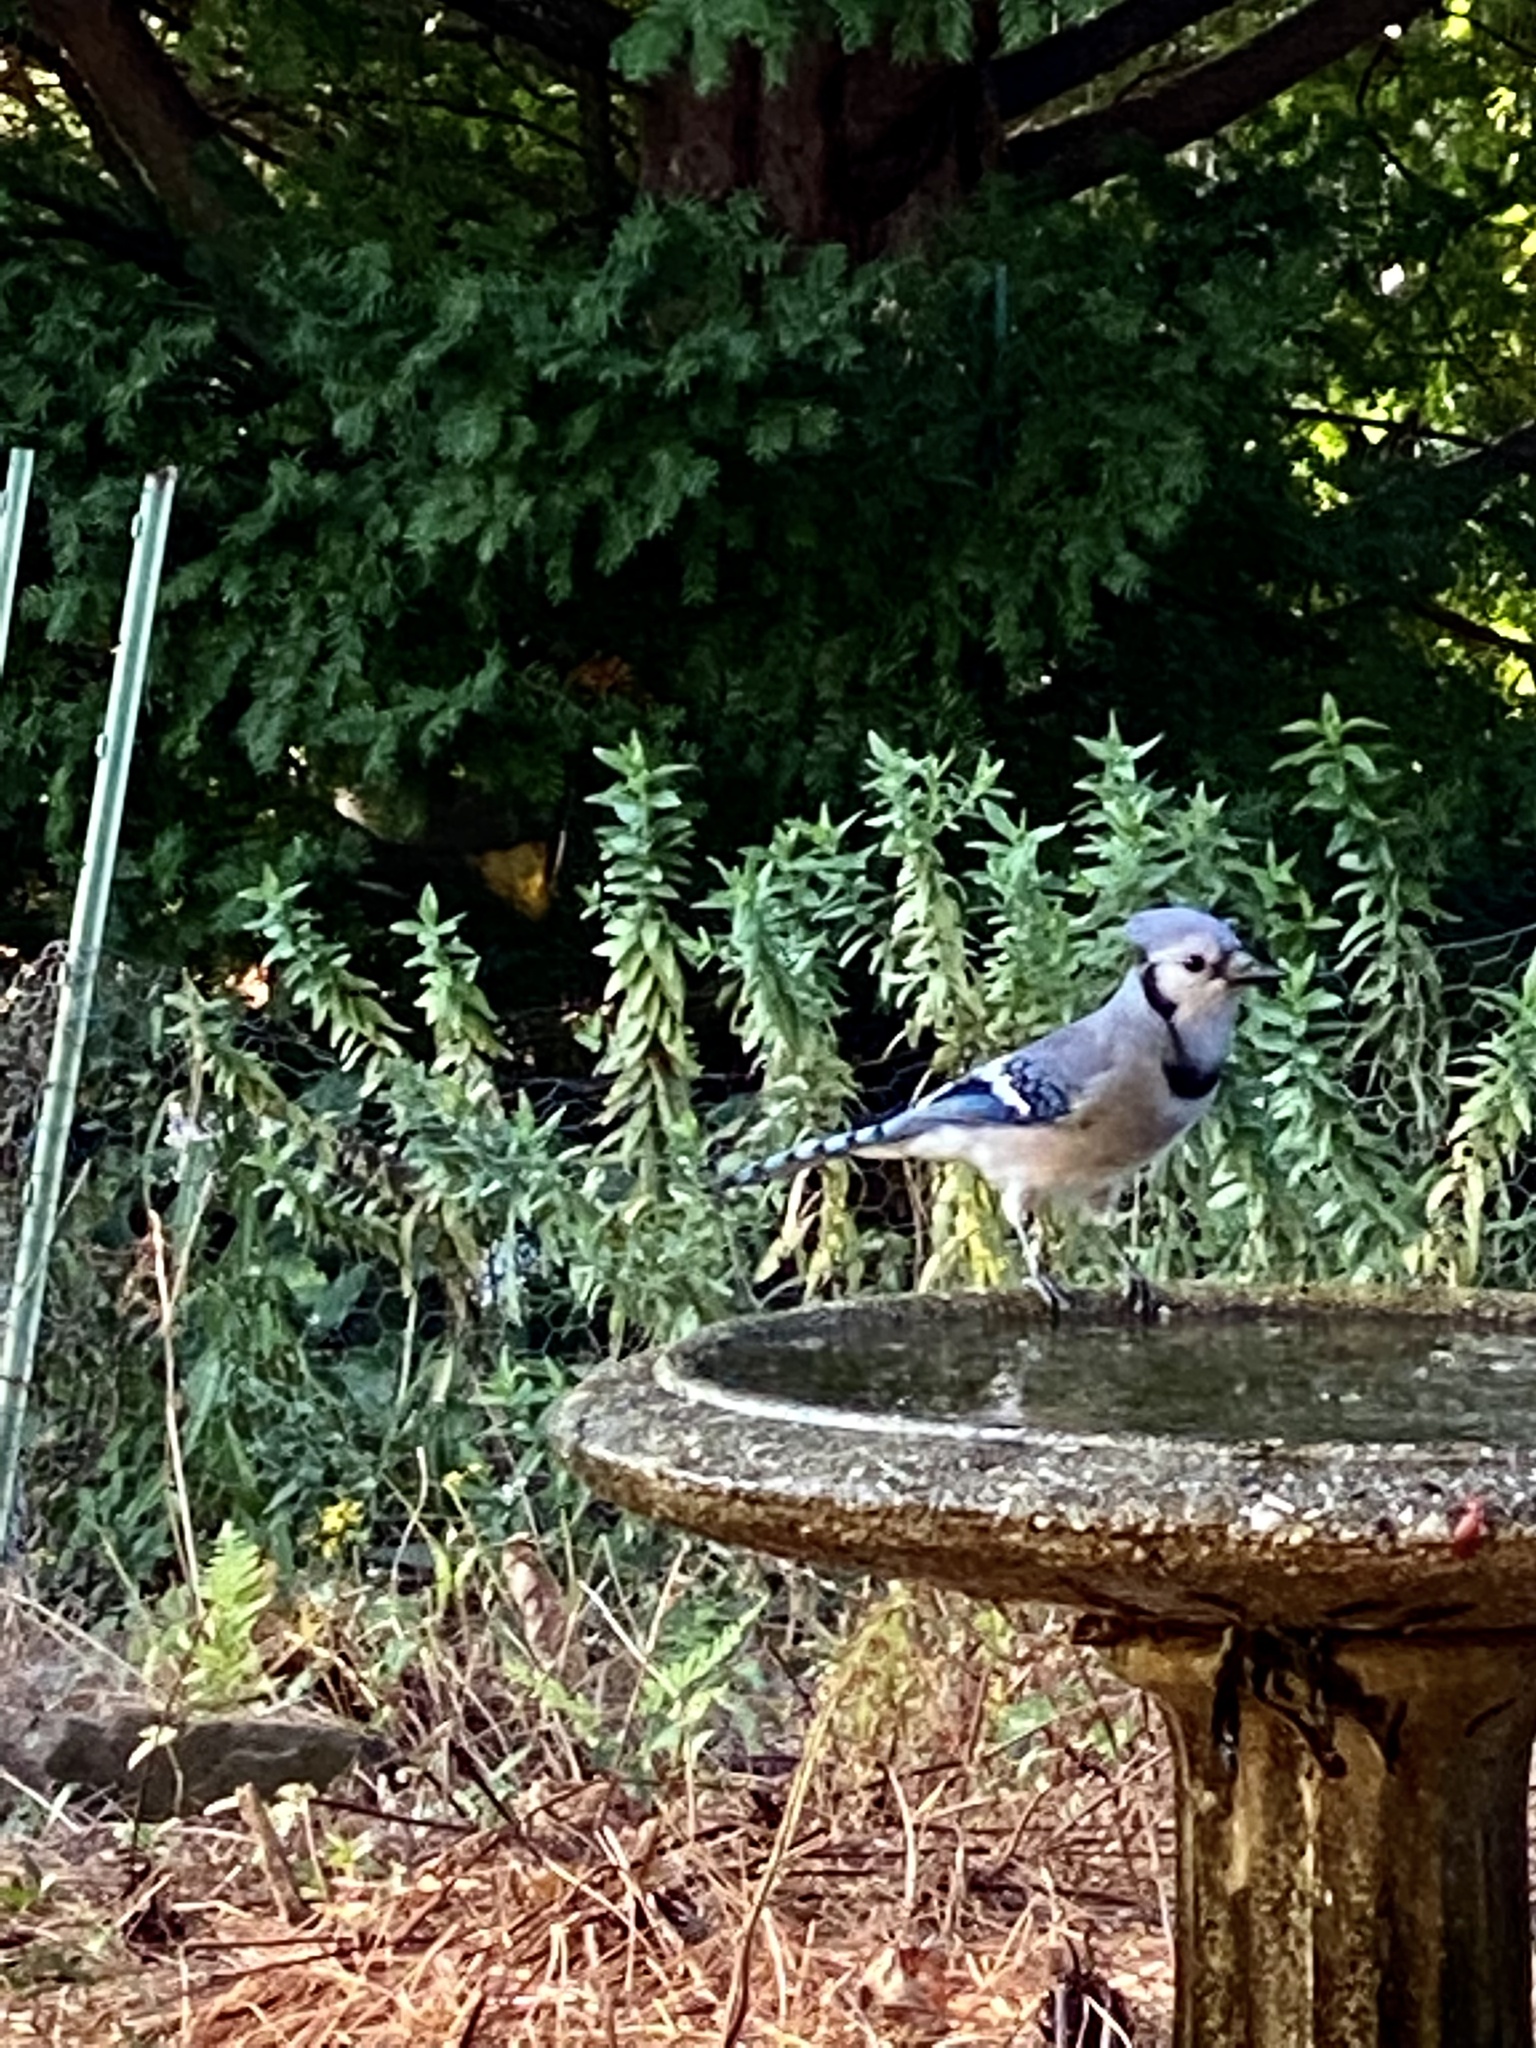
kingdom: Animalia
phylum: Chordata
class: Aves
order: Passeriformes
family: Corvidae
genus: Cyanocitta
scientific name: Cyanocitta cristata
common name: Blue jay
